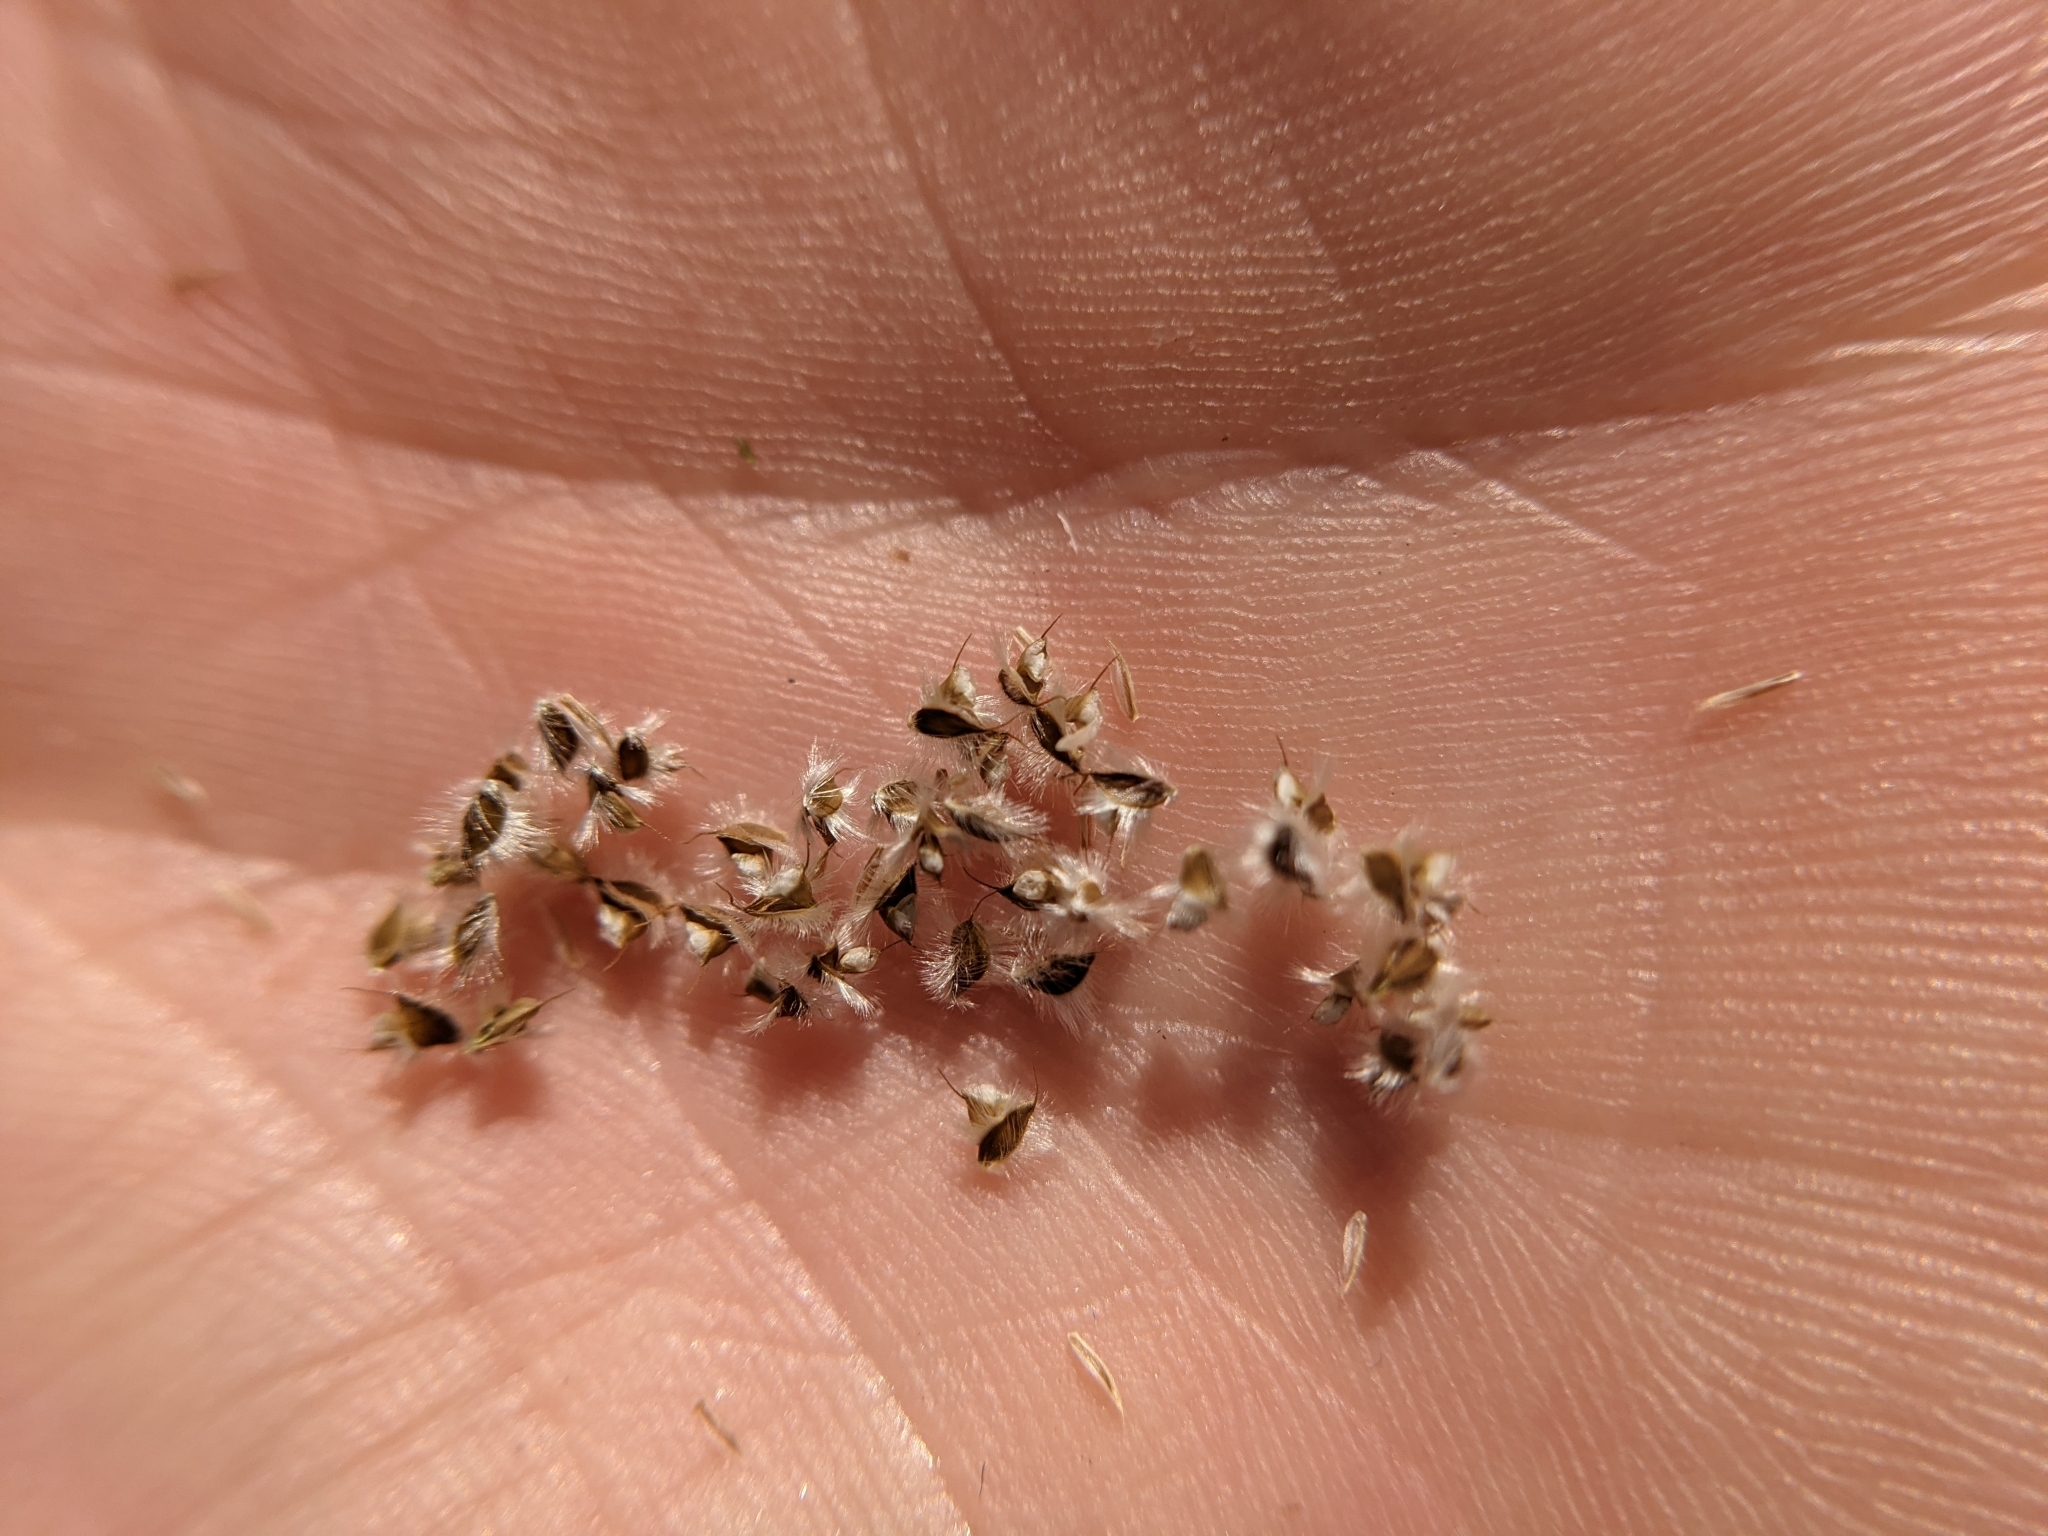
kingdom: Plantae
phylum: Tracheophyta
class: Liliopsida
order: Poales
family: Poaceae
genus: Stapfochloa
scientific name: Stapfochloa ciliata
